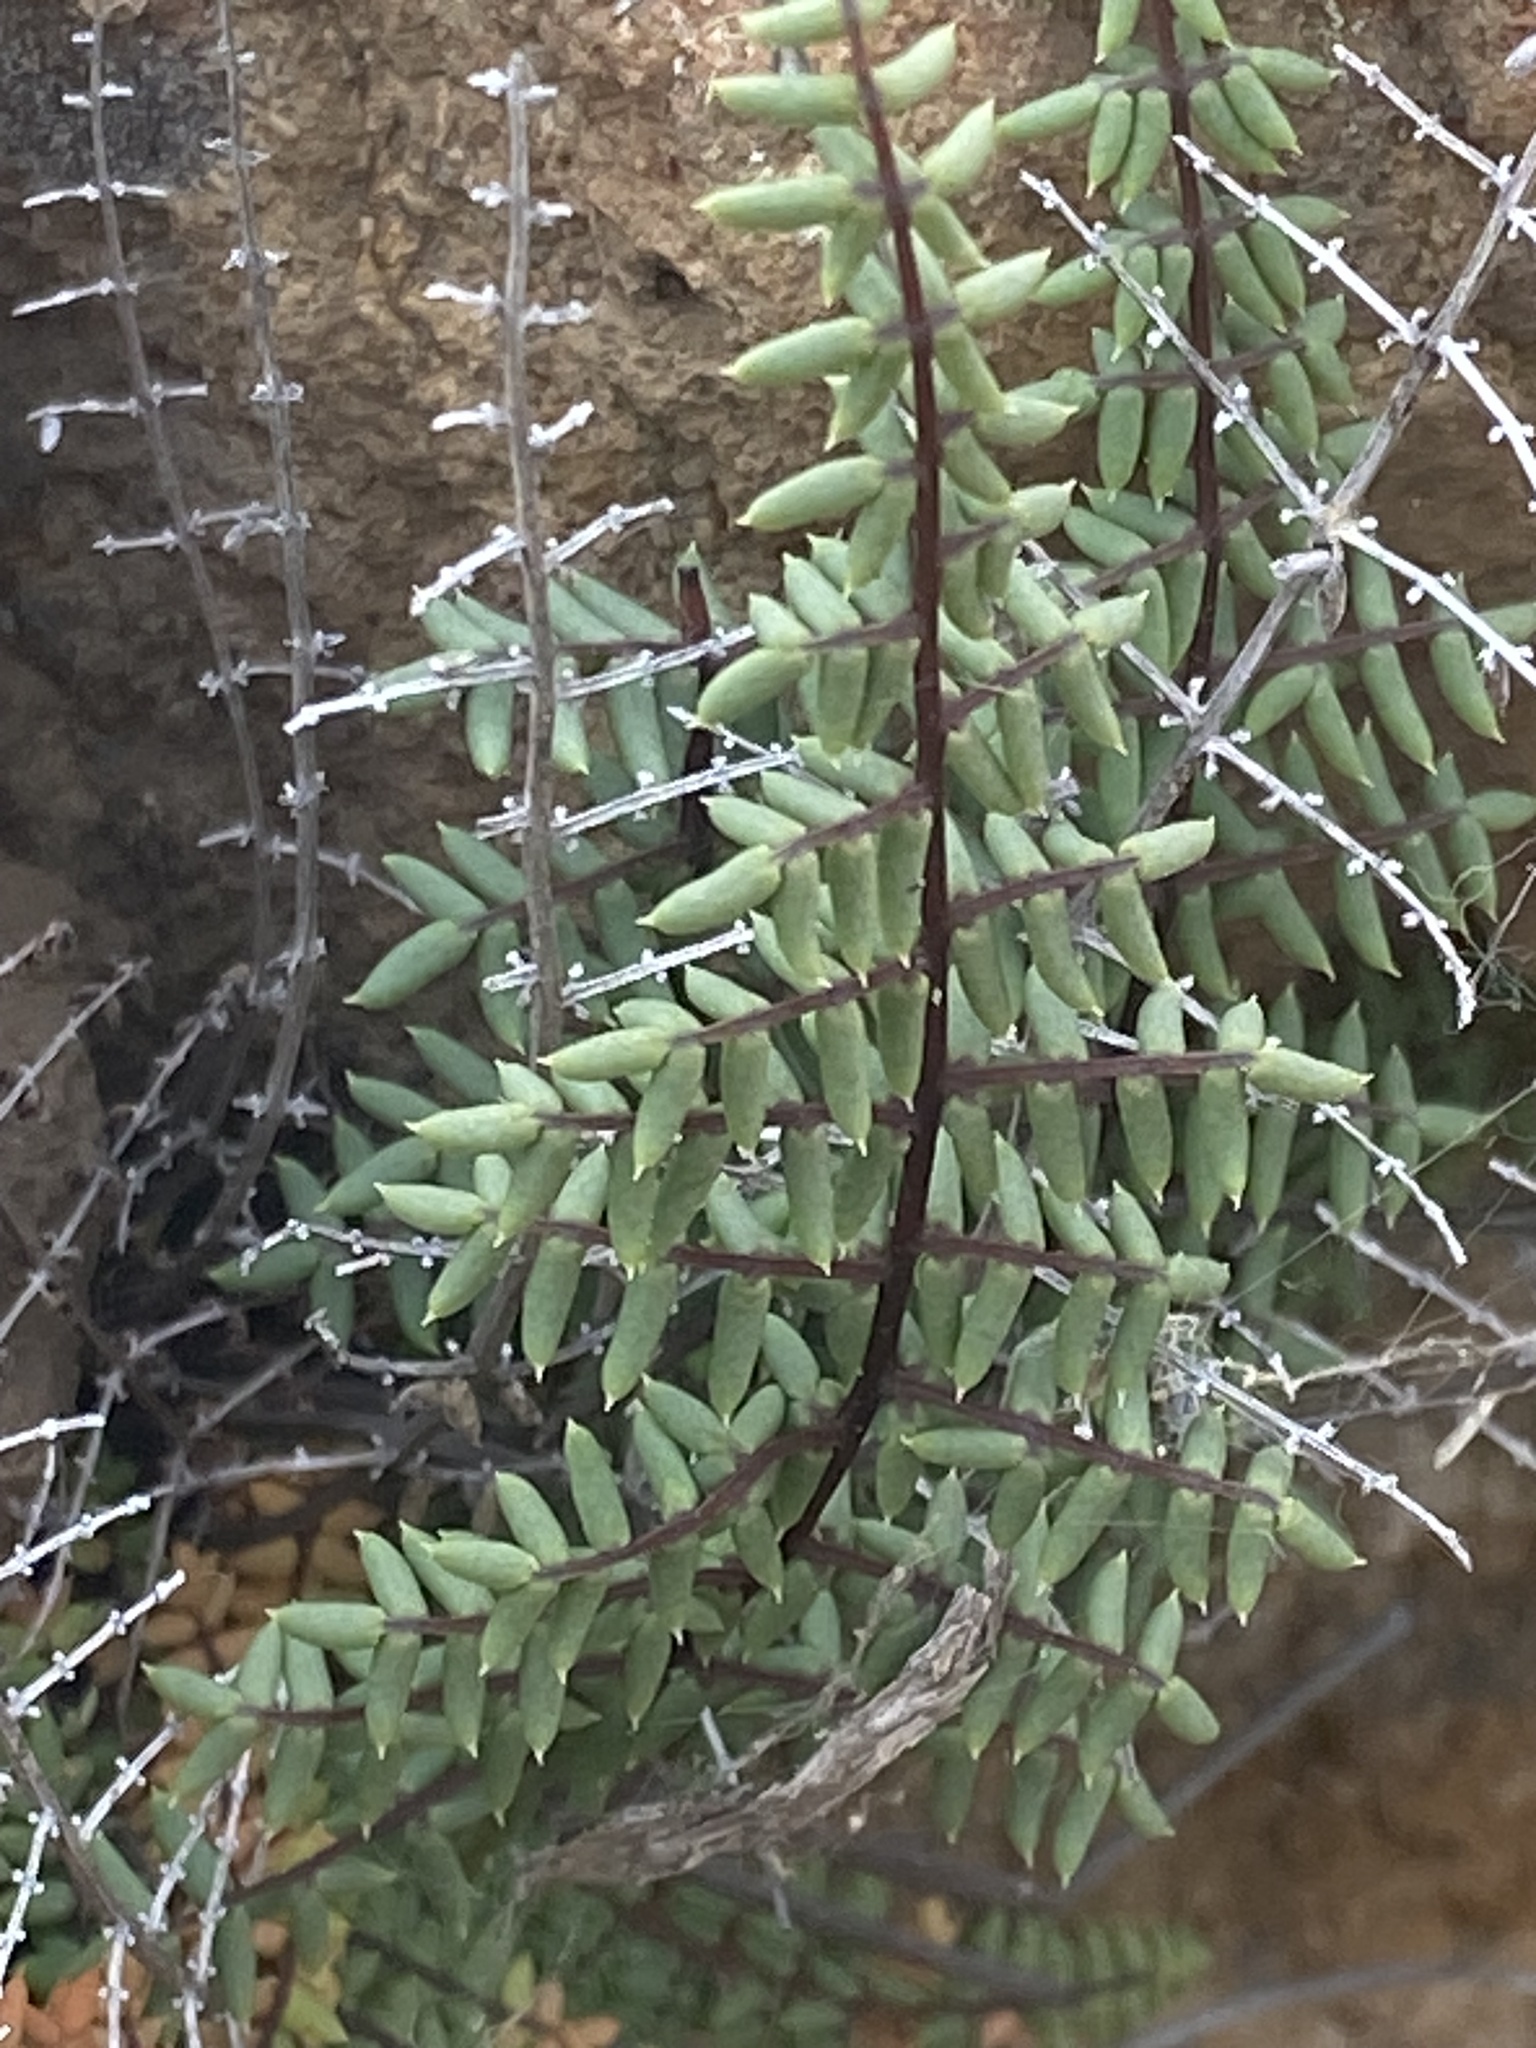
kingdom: Plantae
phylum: Tracheophyta
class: Polypodiopsida
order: Polypodiales
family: Pteridaceae
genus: Pellaea
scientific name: Pellaea mucronata
